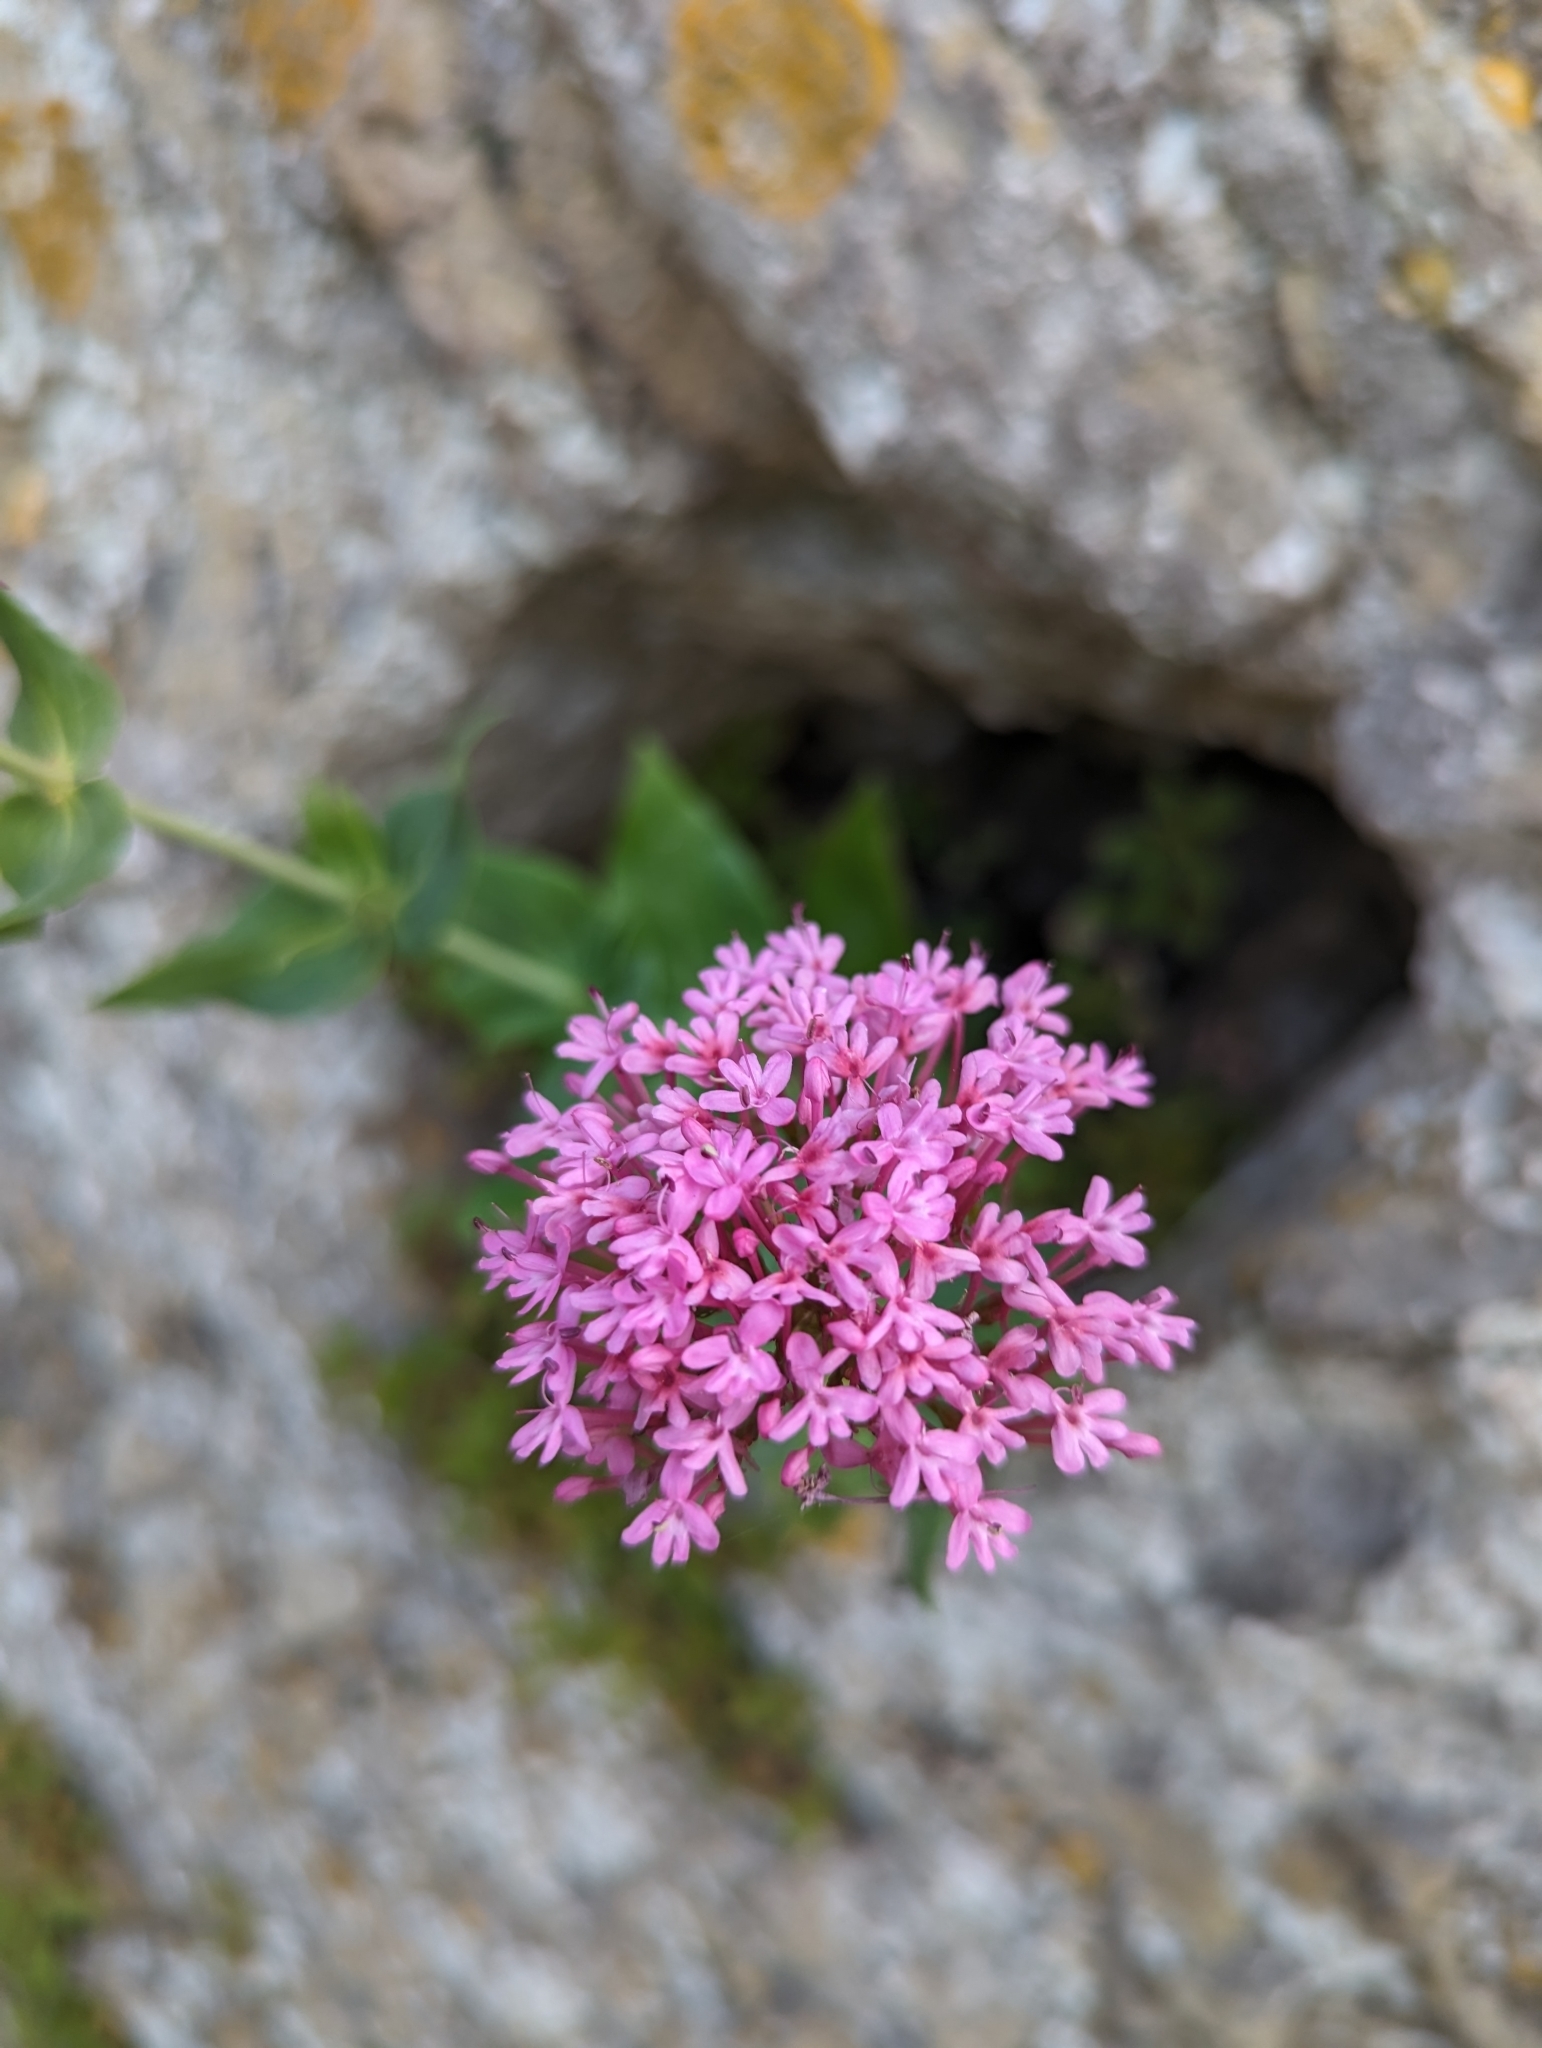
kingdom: Plantae
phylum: Tracheophyta
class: Magnoliopsida
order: Dipsacales
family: Caprifoliaceae
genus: Centranthus
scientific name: Centranthus ruber
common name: Red valerian
